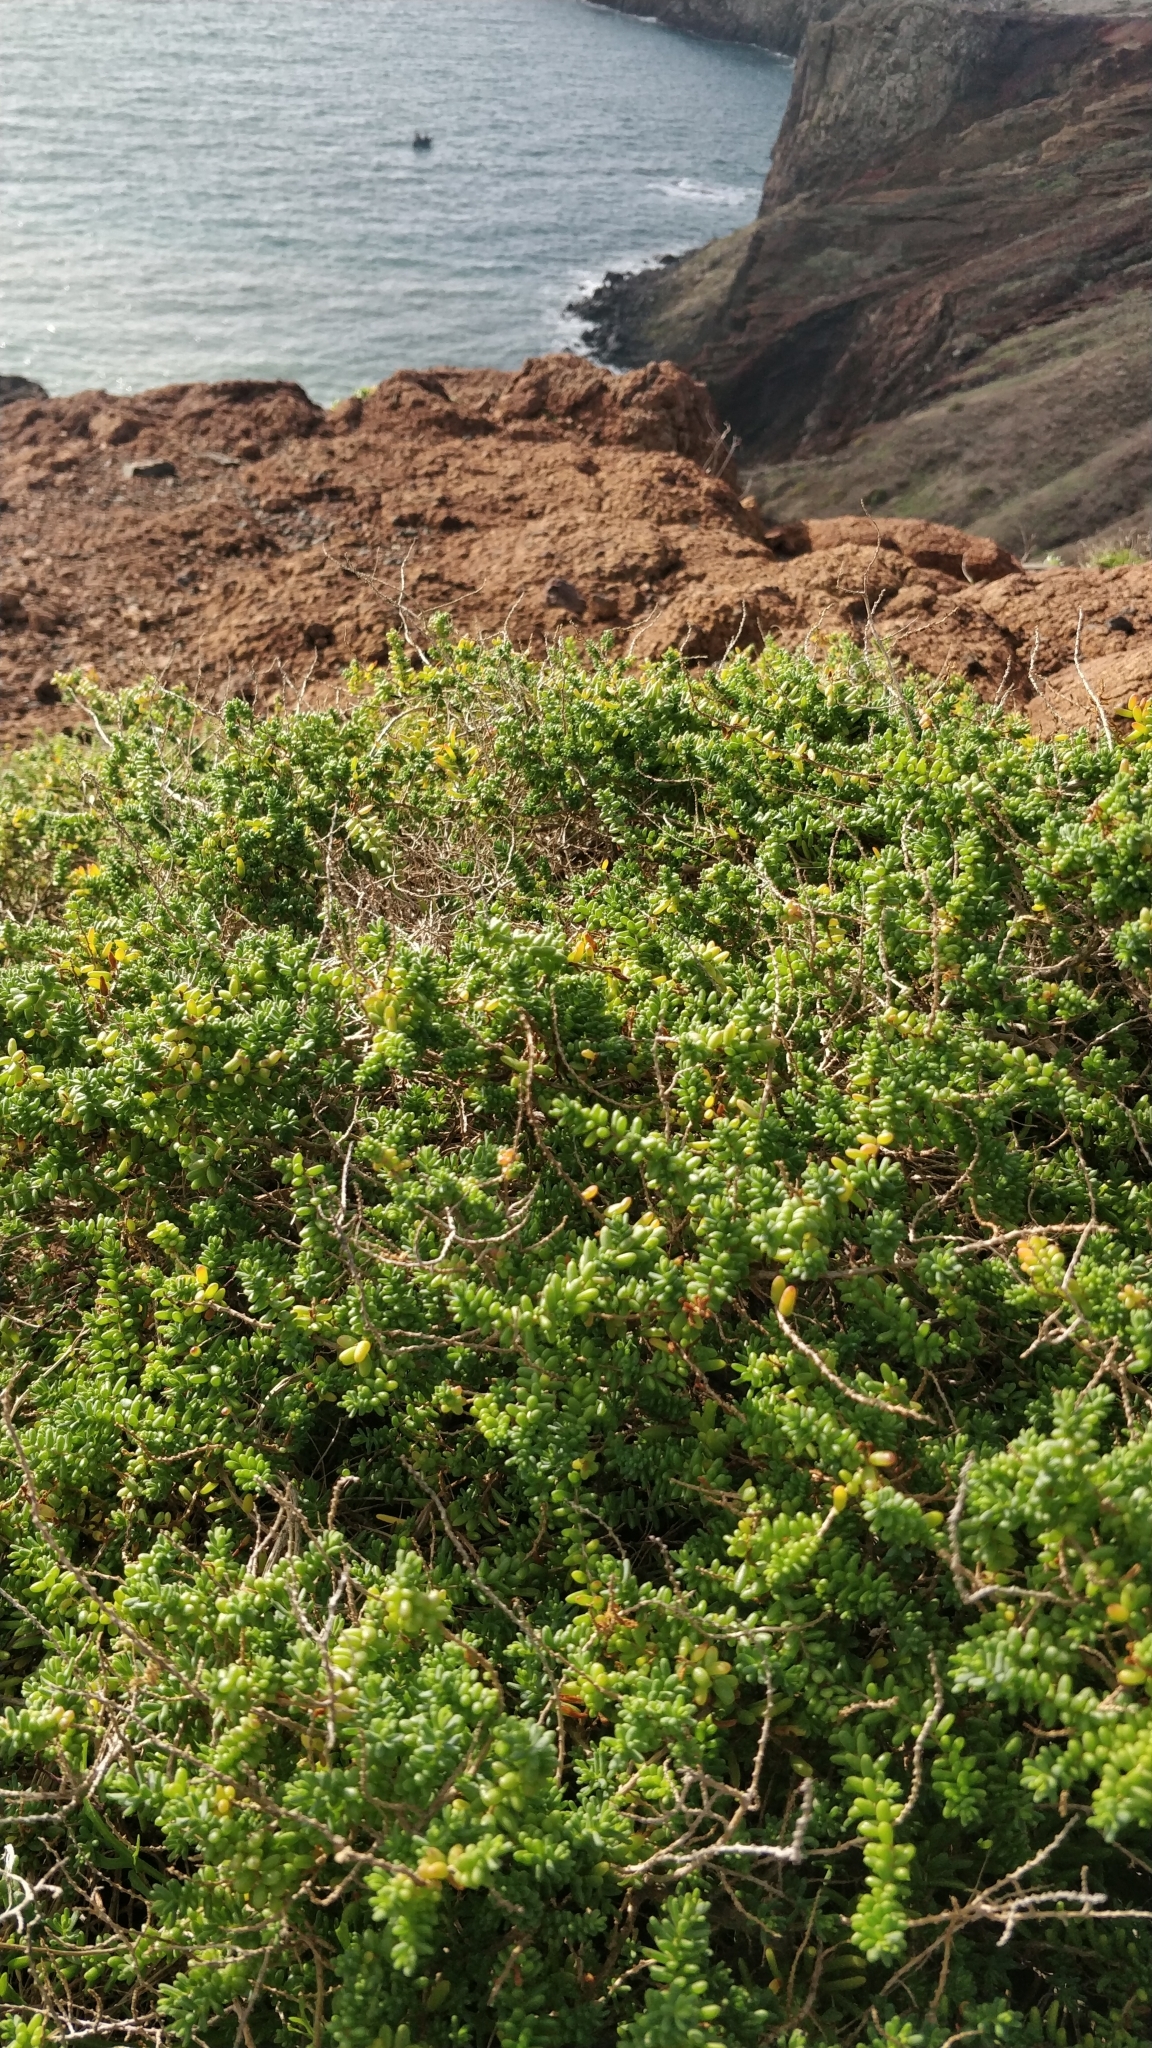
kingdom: Plantae
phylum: Tracheophyta
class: Magnoliopsida
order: Caryophyllales
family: Amaranthaceae
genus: Suaeda
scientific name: Suaeda vera
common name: Shrubby sea-blite
